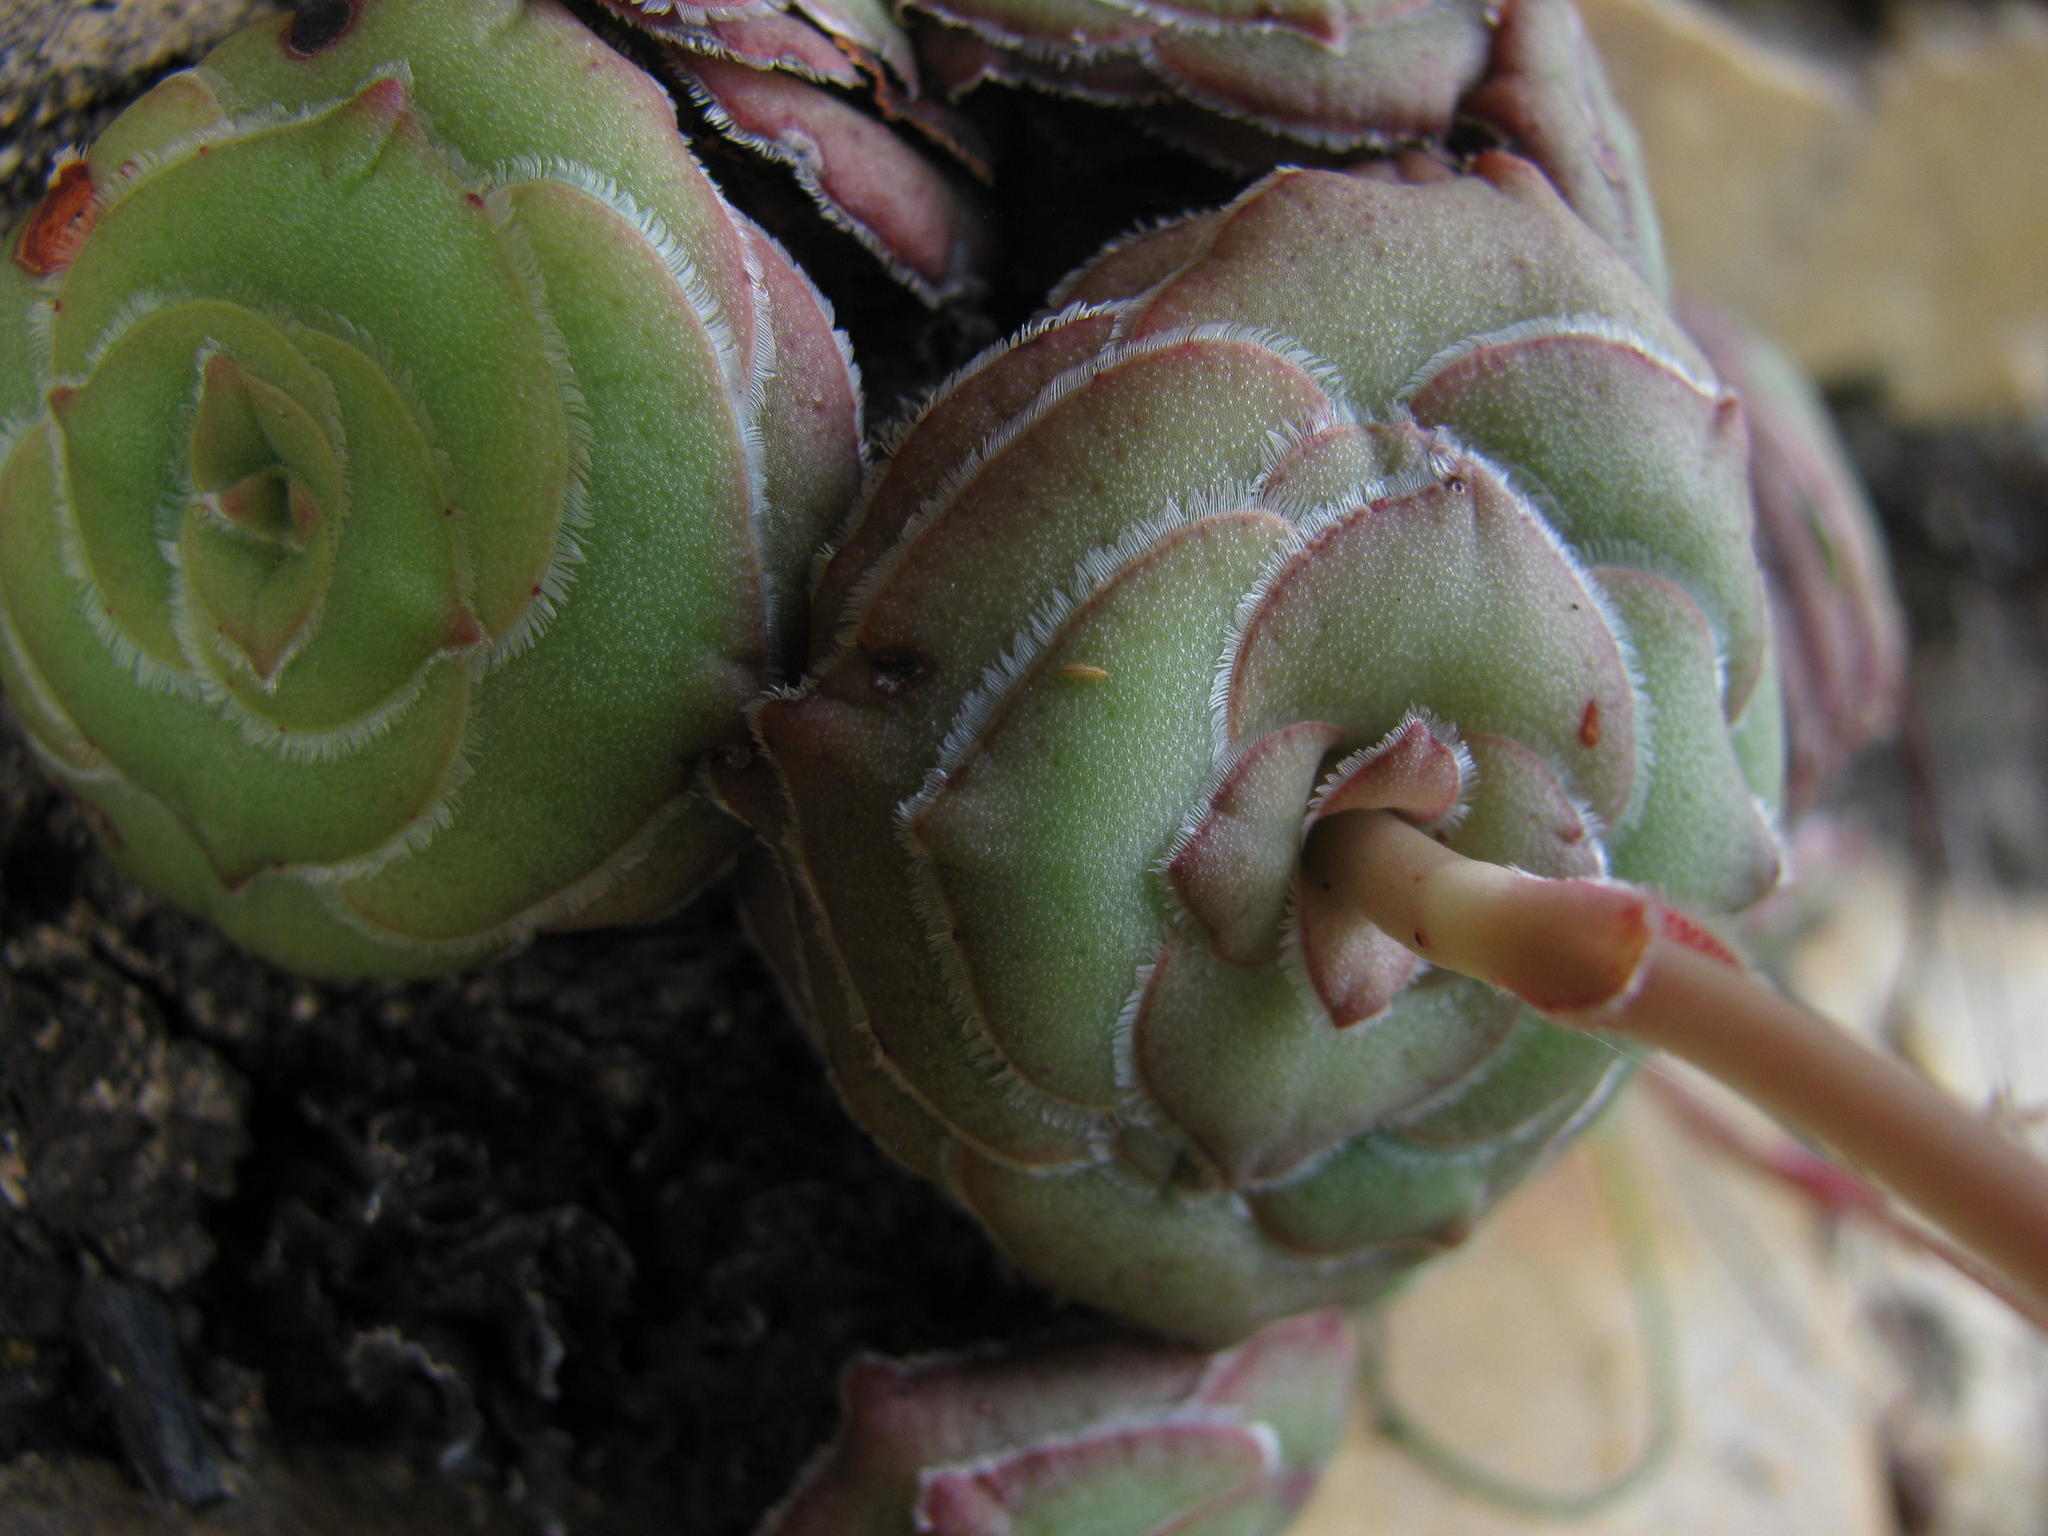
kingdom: Plantae
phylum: Tracheophyta
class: Magnoliopsida
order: Saxifragales
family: Crassulaceae
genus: Crassula
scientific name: Crassula cremnophila
